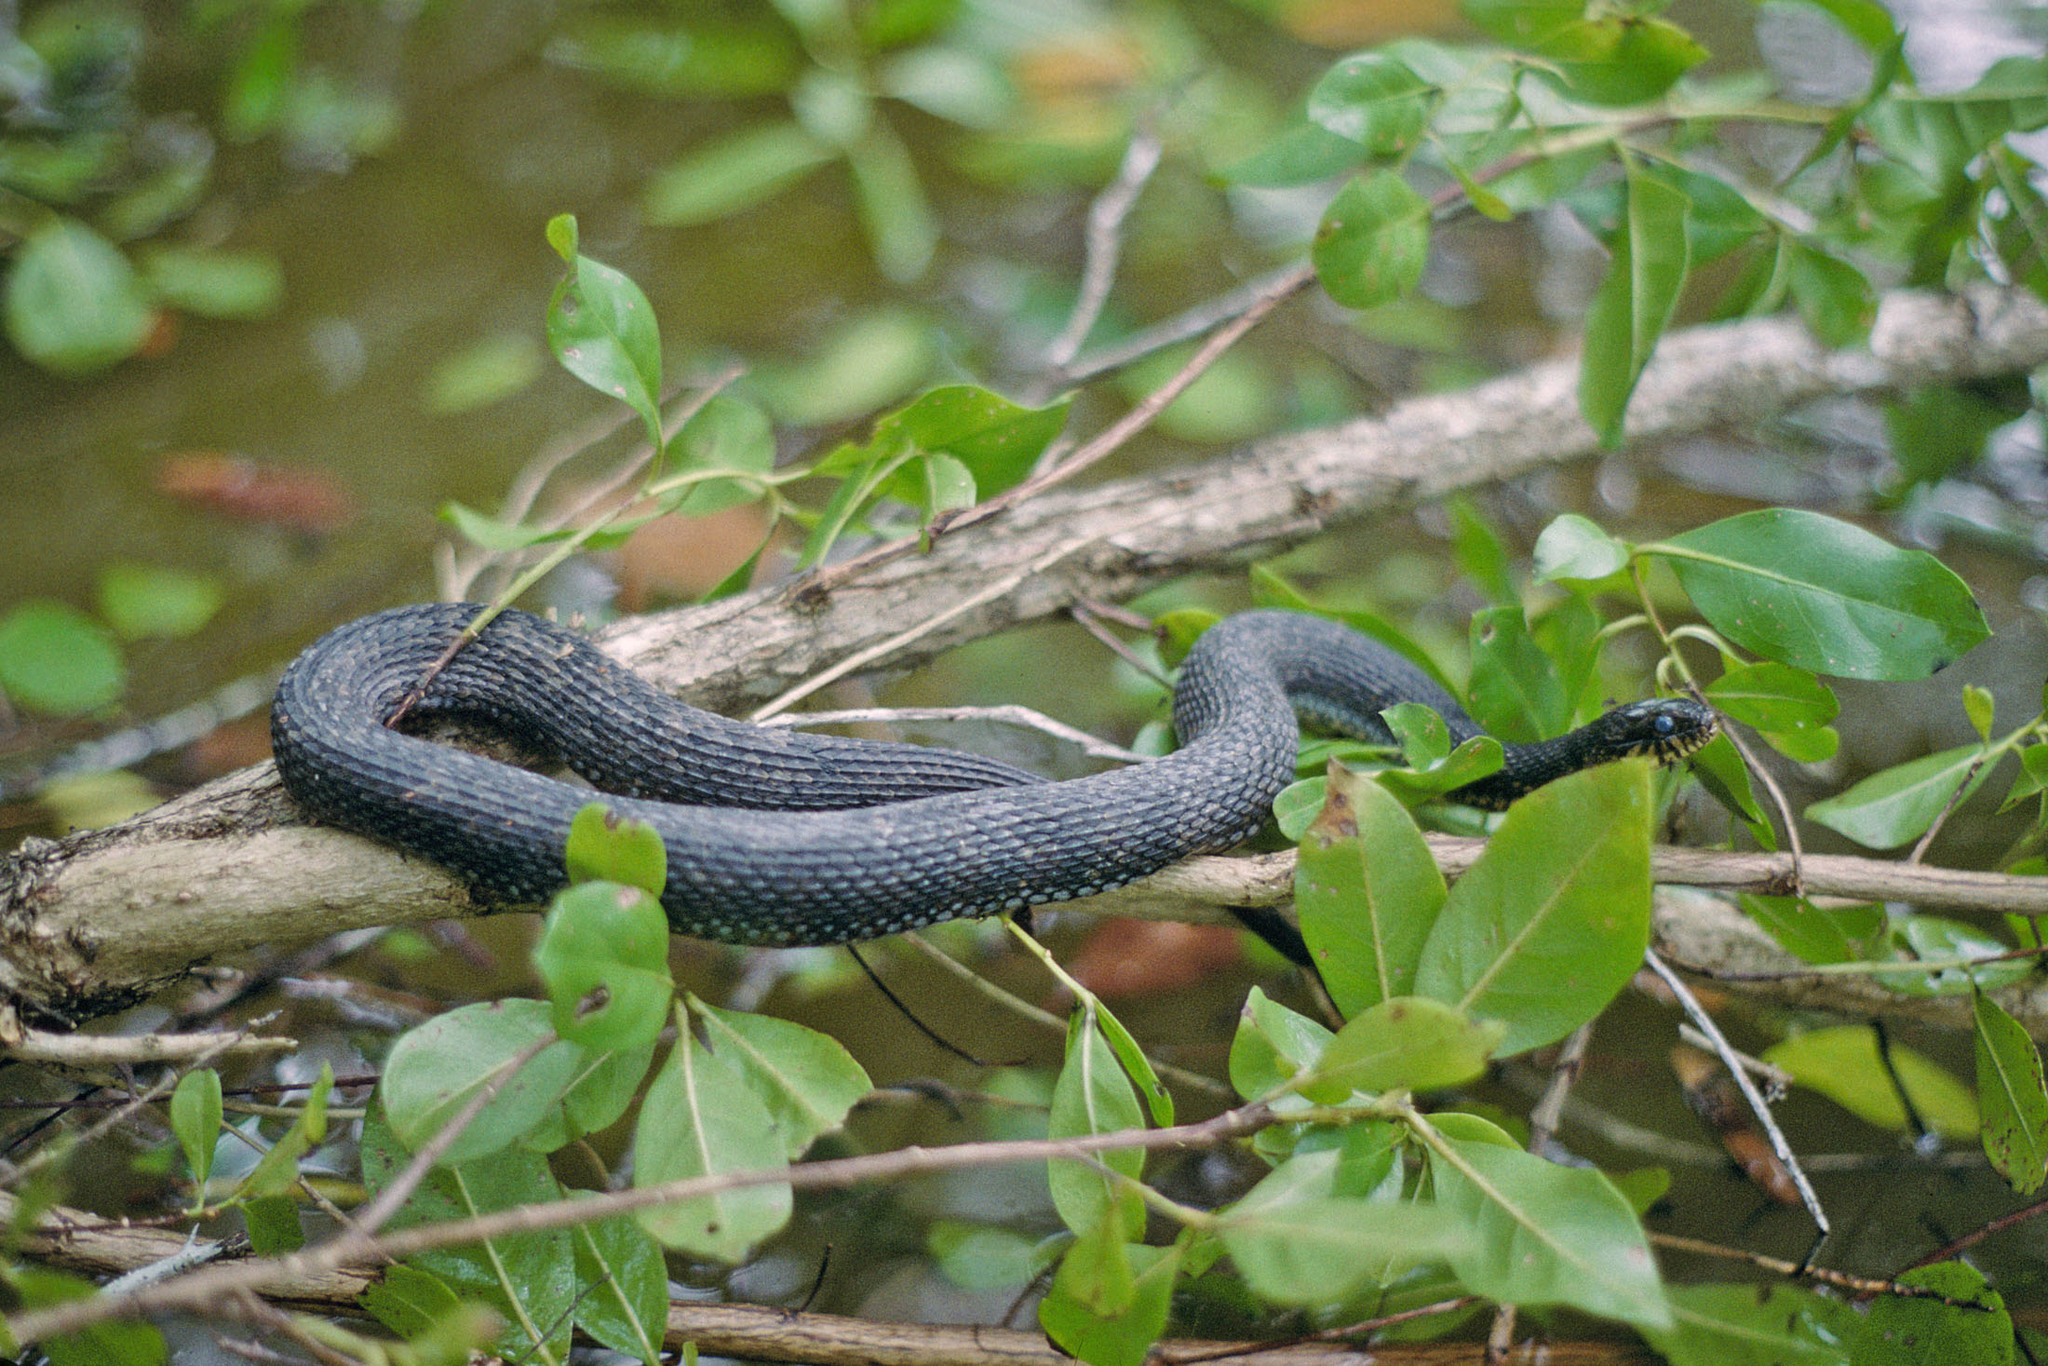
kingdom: Animalia
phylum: Chordata
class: Squamata
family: Colubridae
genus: Nerodia
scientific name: Nerodia floridana
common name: Florida green watersnake
